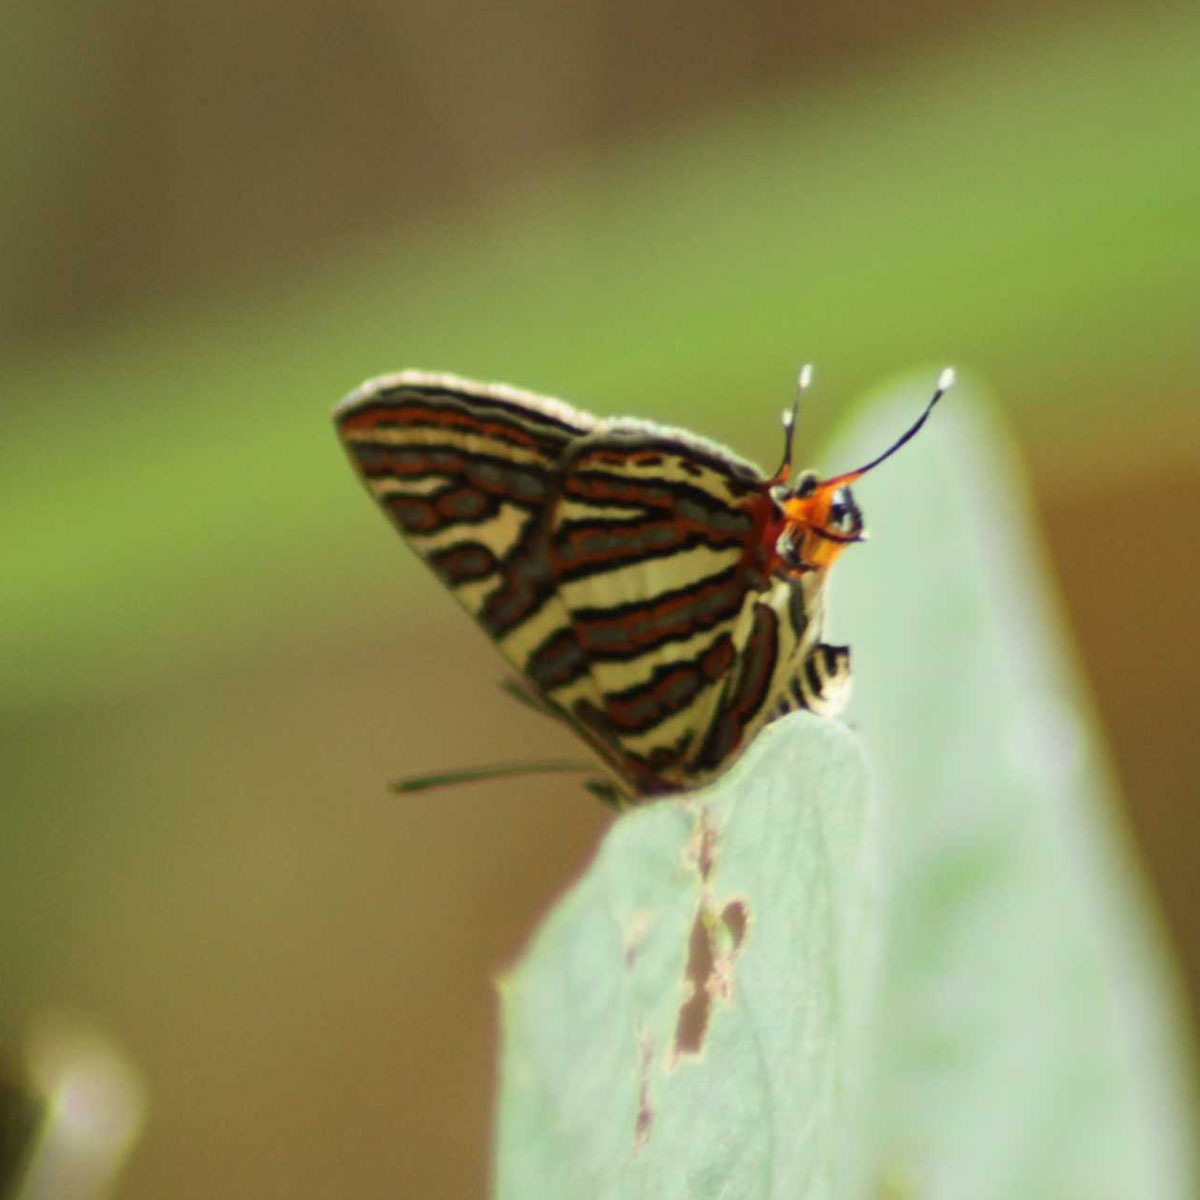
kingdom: Animalia
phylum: Arthropoda
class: Insecta
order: Lepidoptera
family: Lycaenidae
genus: Cigaritis
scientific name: Cigaritis vulcanus
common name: Common silverline
